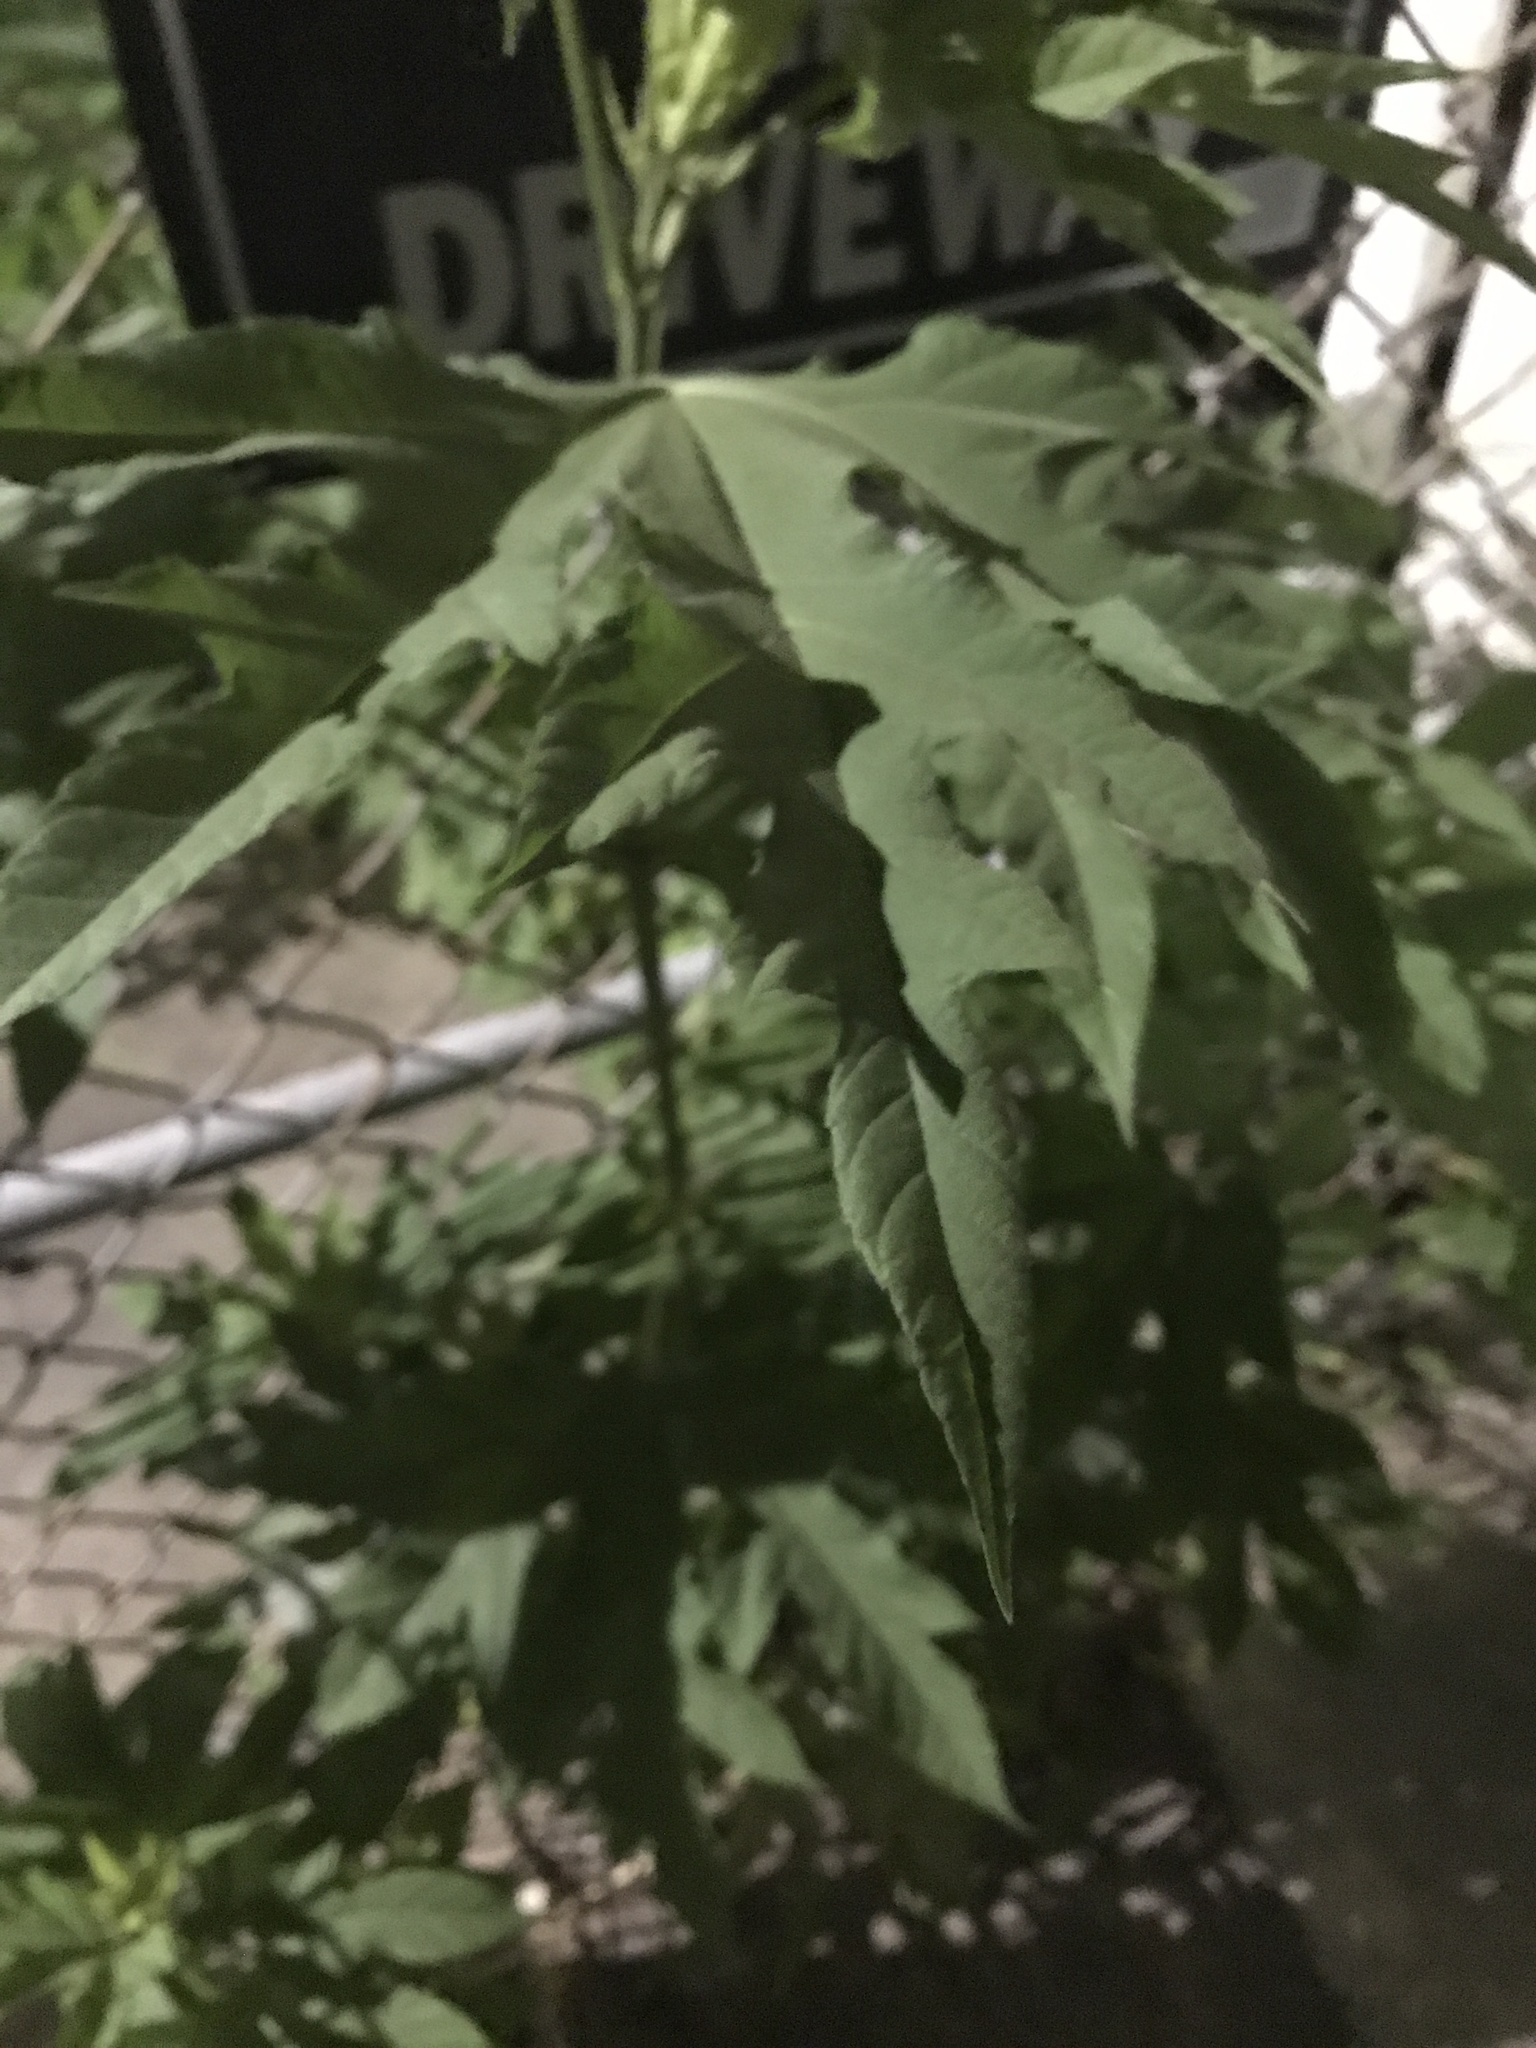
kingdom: Plantae
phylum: Tracheophyta
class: Magnoliopsida
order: Brassicales
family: Caricaceae
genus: Carica
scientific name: Carica papaya
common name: Papaya
